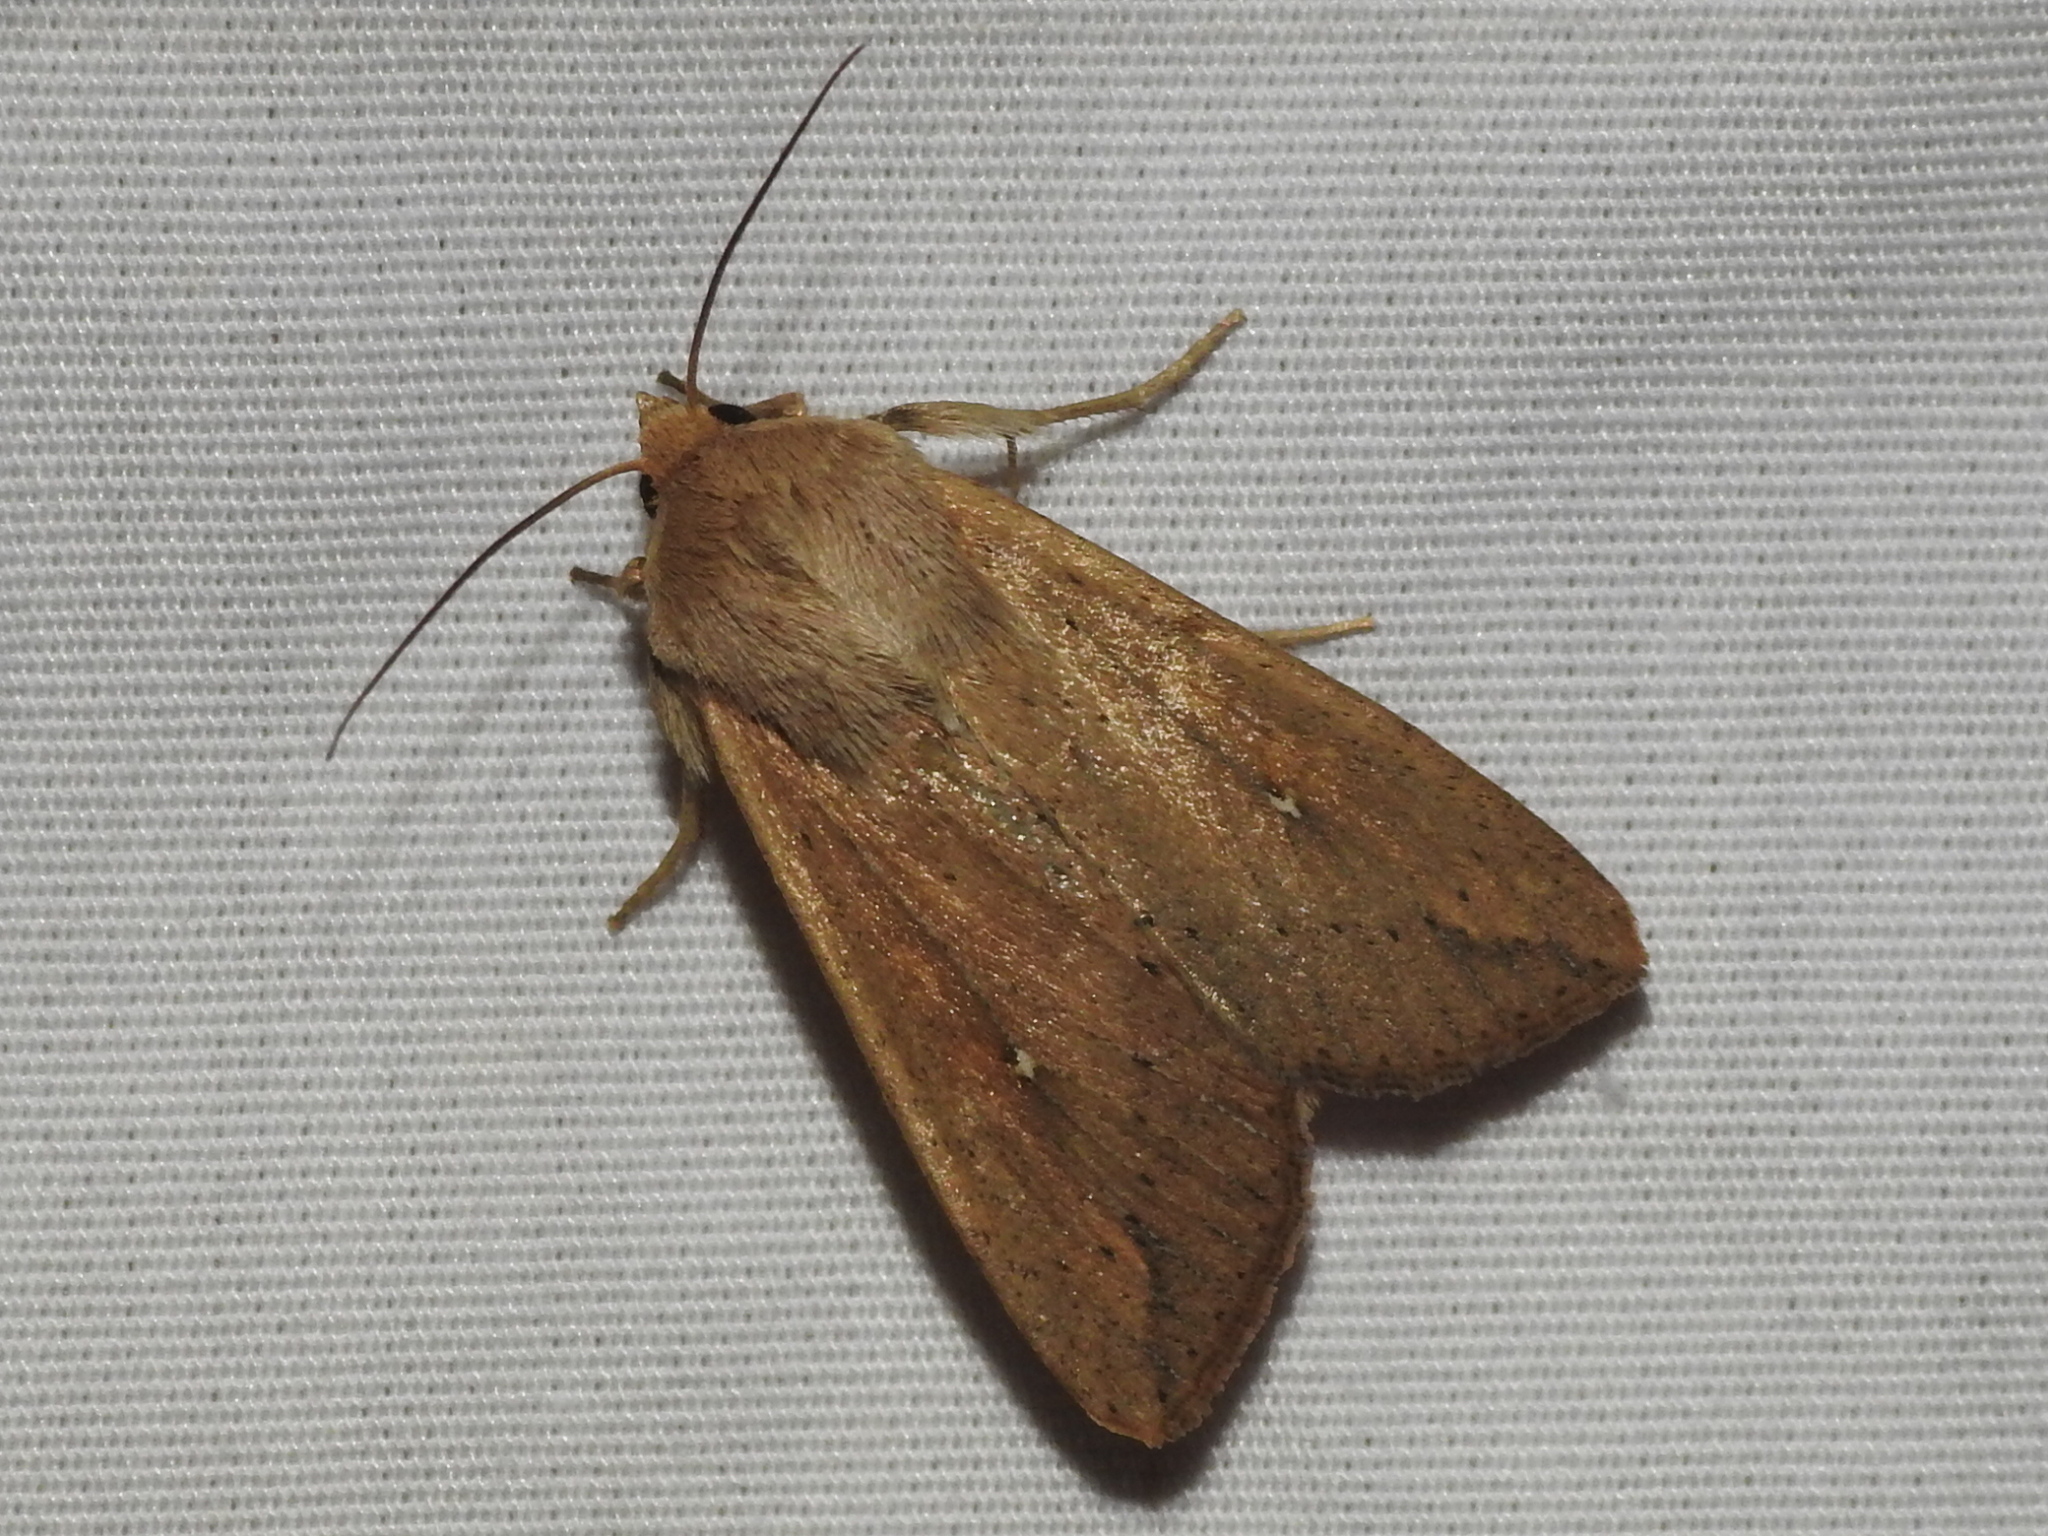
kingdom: Animalia
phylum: Arthropoda
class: Insecta
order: Lepidoptera
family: Noctuidae
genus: Mythimna
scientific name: Mythimna unipuncta
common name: White-speck
